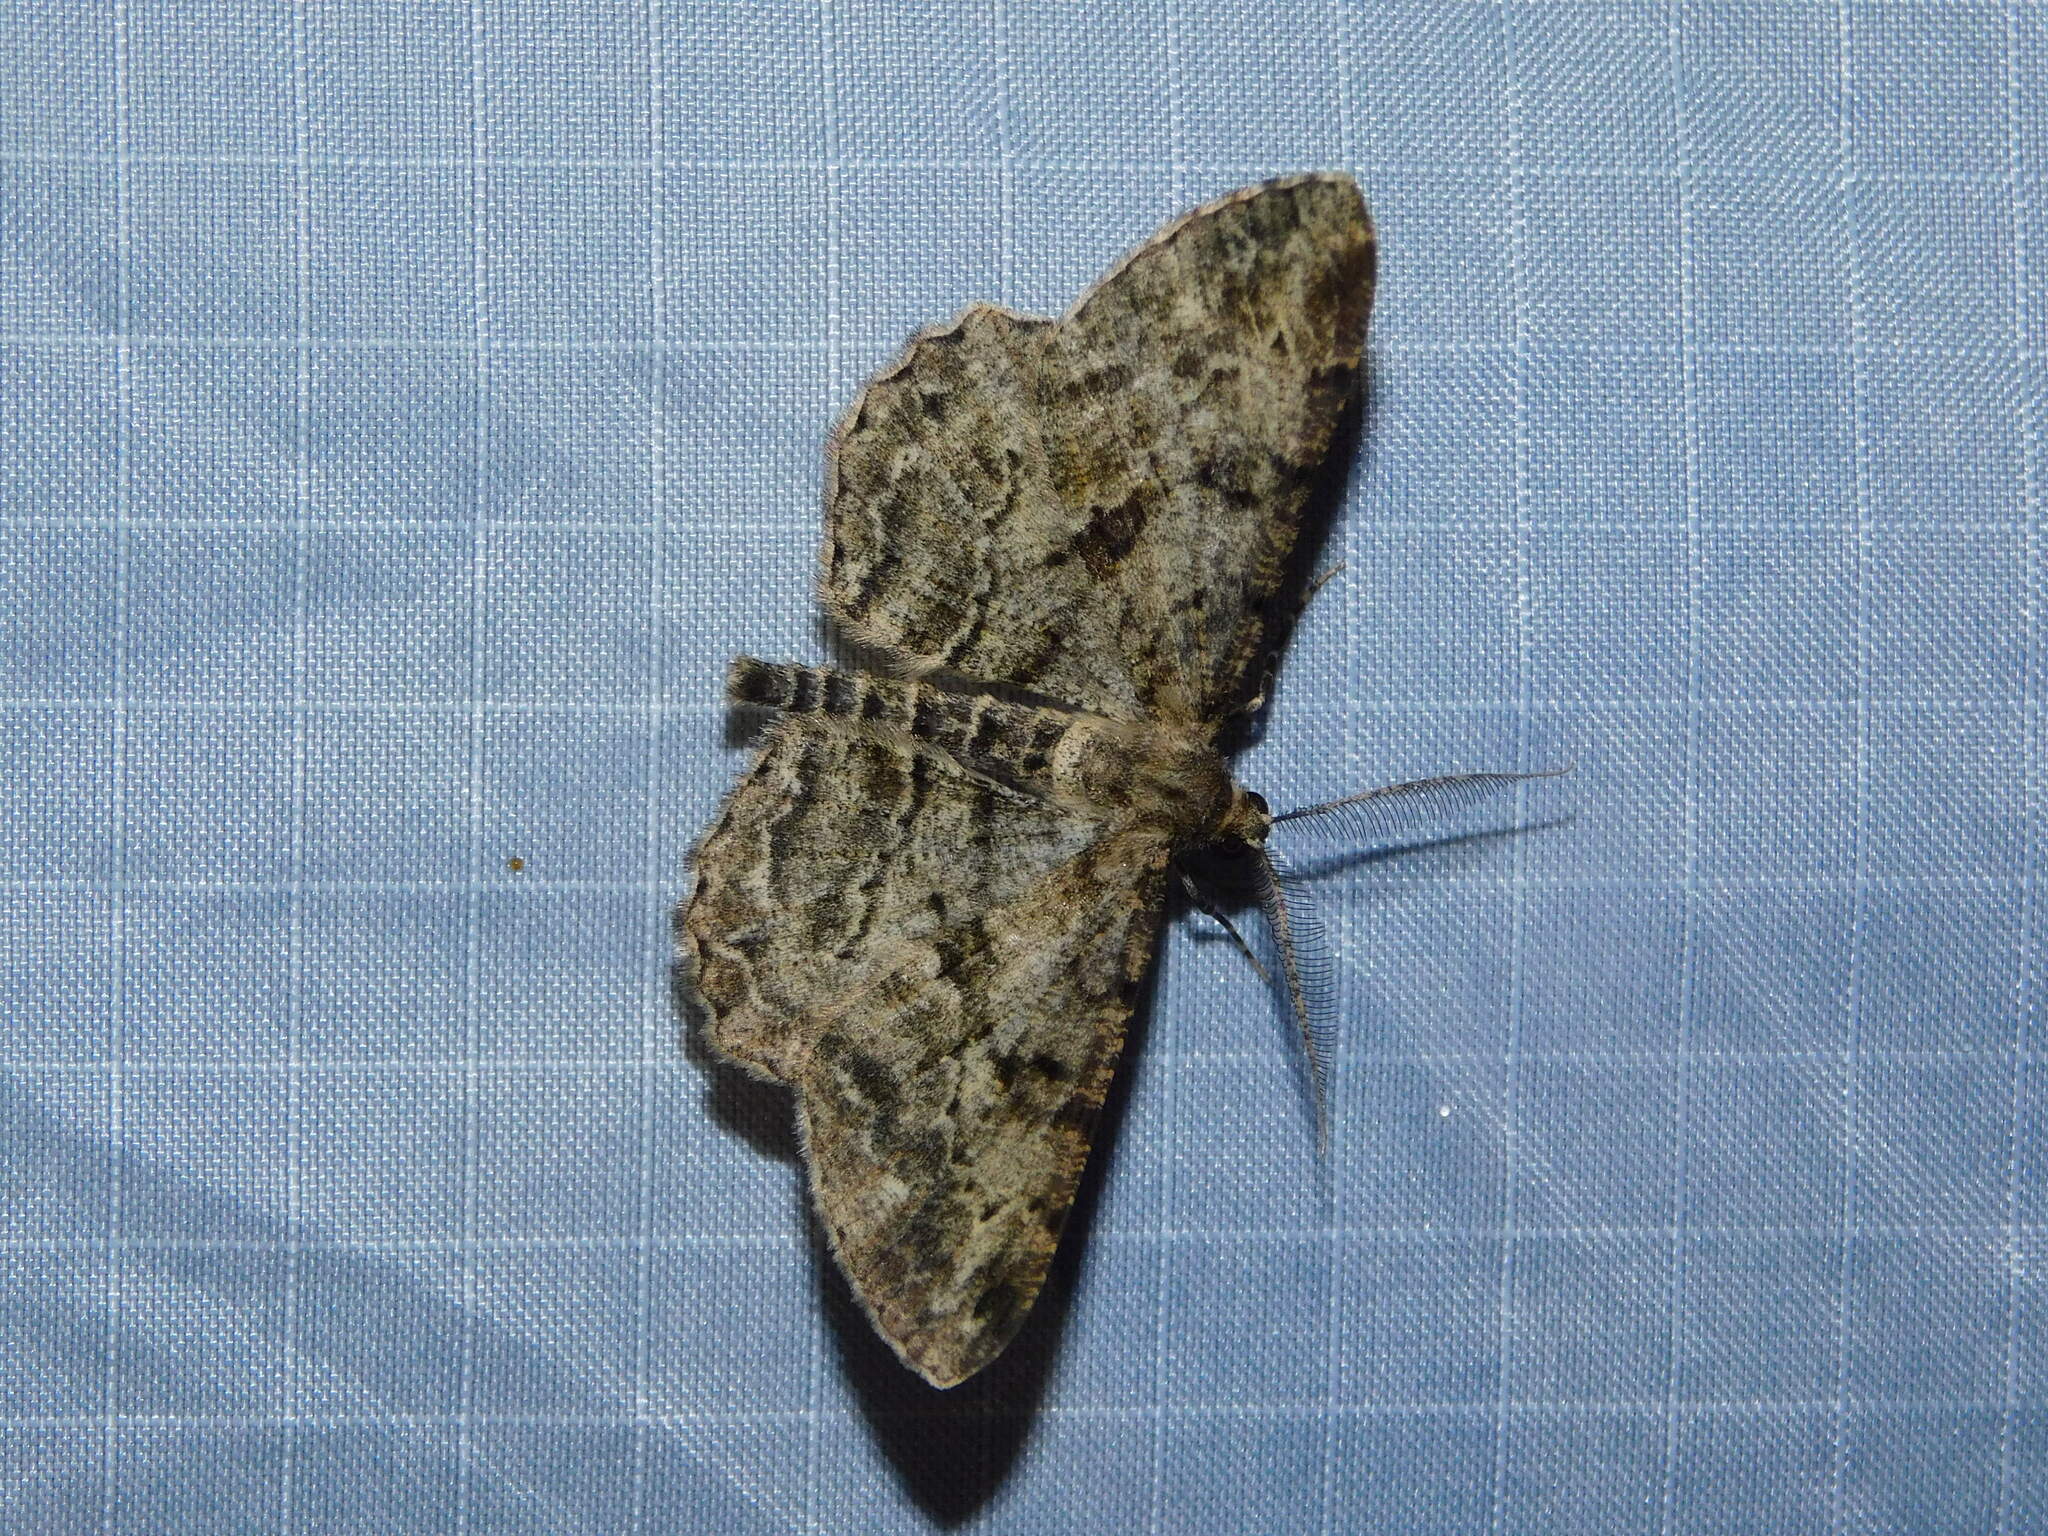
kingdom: Animalia
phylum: Arthropoda
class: Insecta
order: Lepidoptera
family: Geometridae
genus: Peribatodes
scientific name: Peribatodes rhomboidaria
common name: Willow beauty
